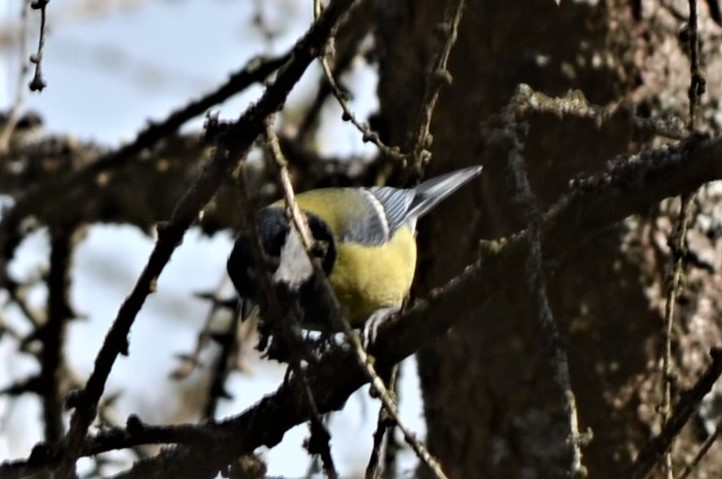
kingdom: Animalia
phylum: Chordata
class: Aves
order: Passeriformes
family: Paridae
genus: Parus
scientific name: Parus major
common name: Great tit
